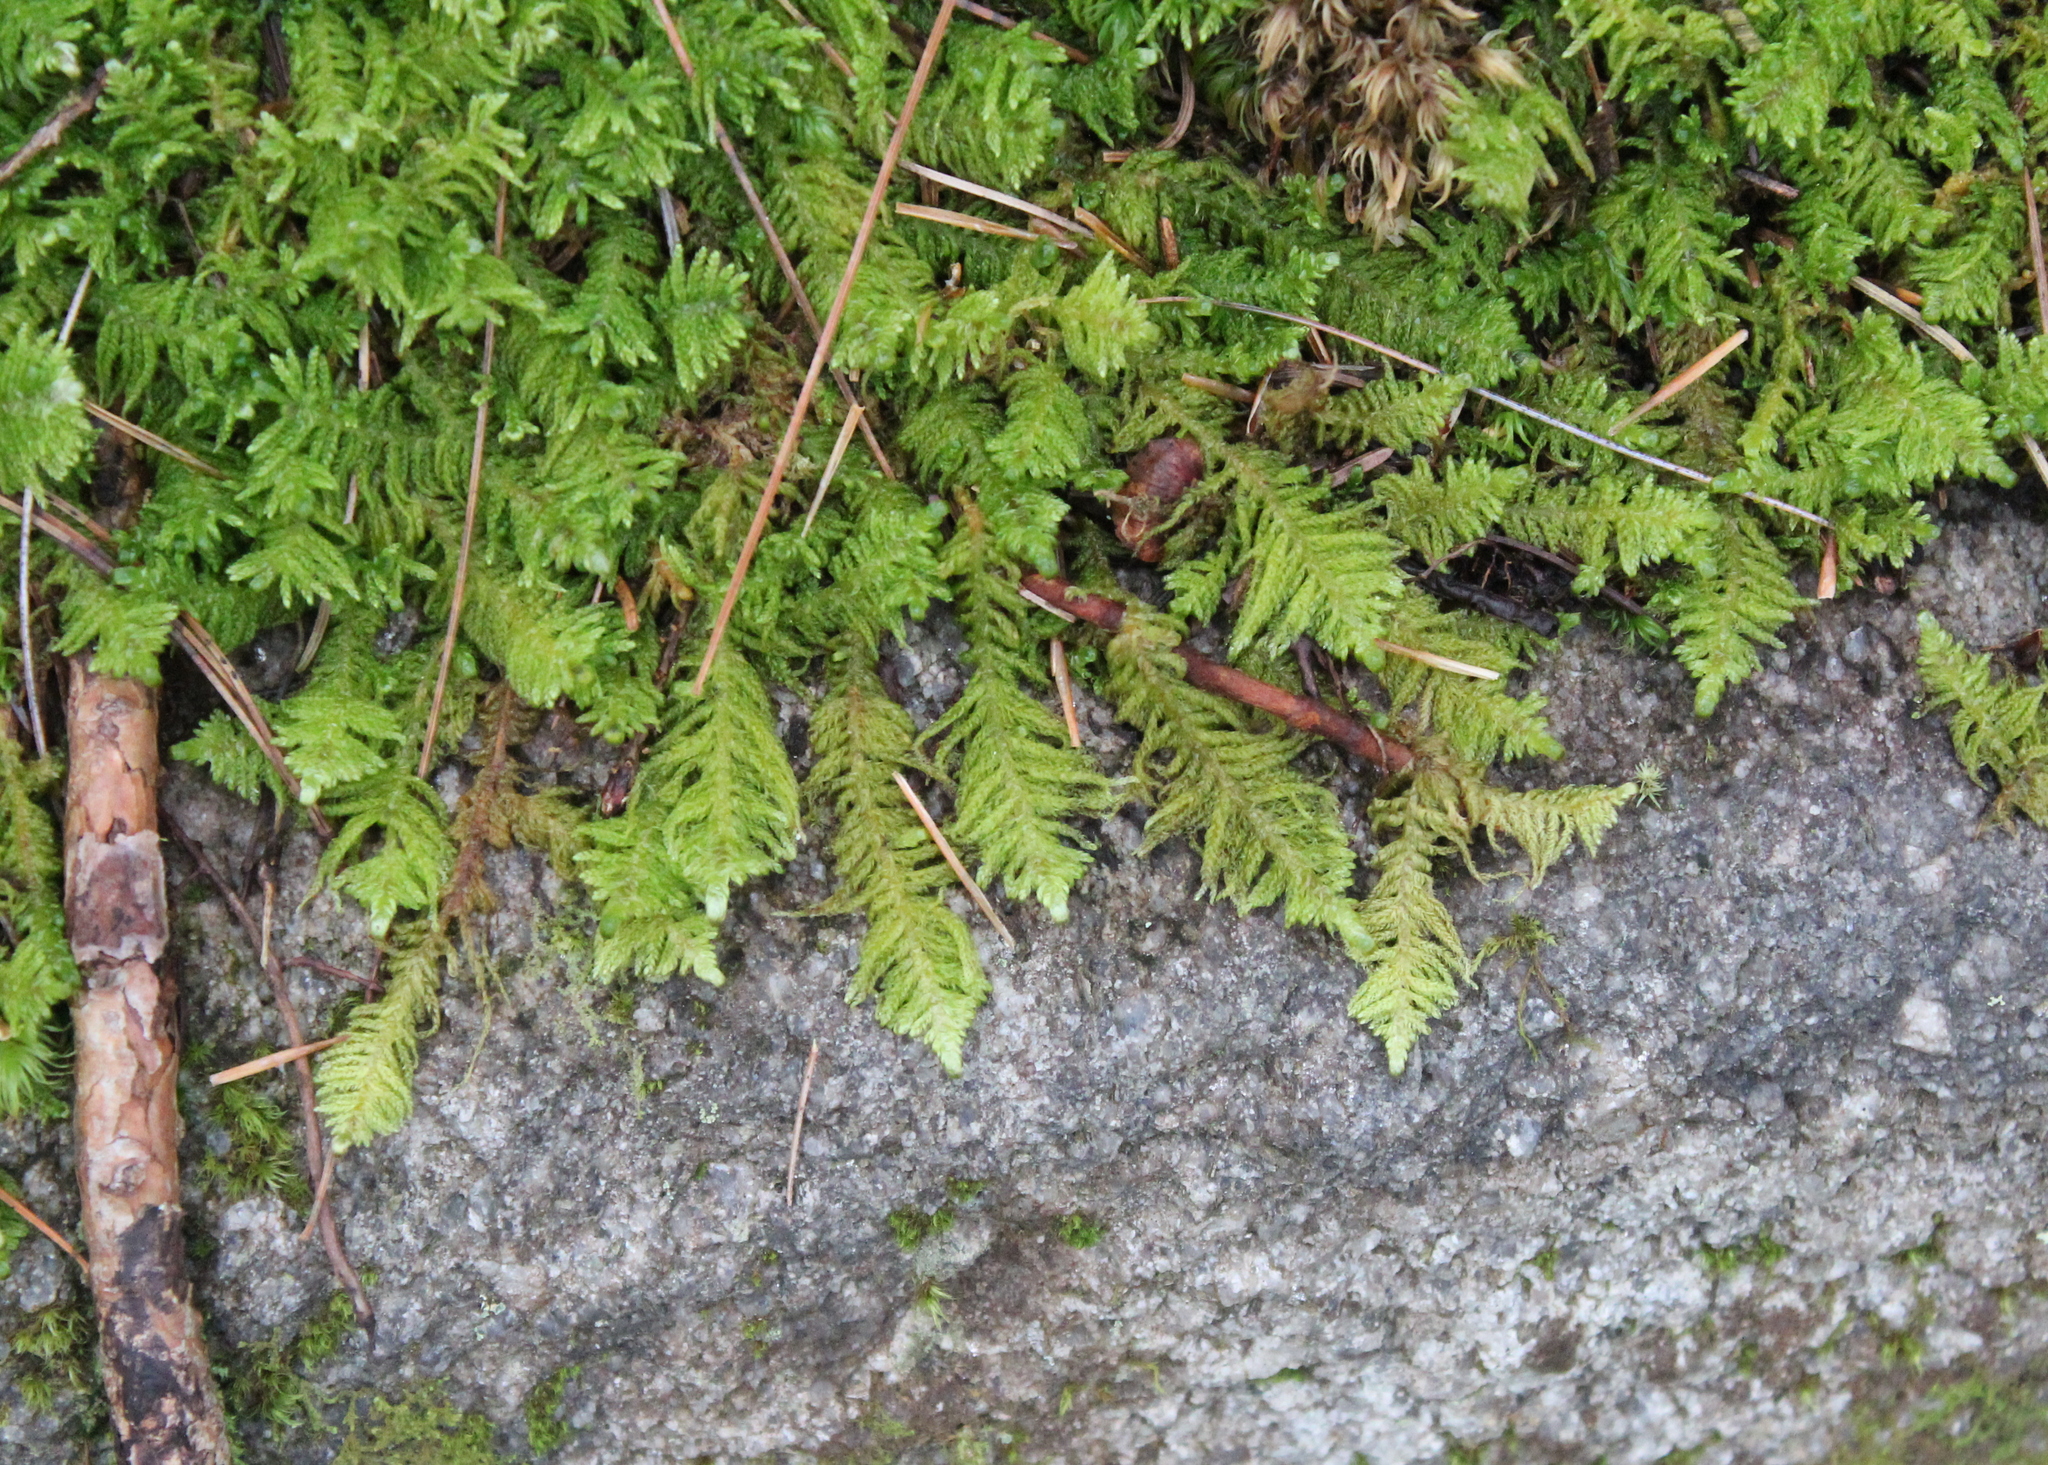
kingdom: Plantae
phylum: Bryophyta
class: Bryopsida
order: Hypnales
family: Pylaisiaceae
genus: Ptilium
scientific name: Ptilium crista-castrensis
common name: Knight's plume moss
